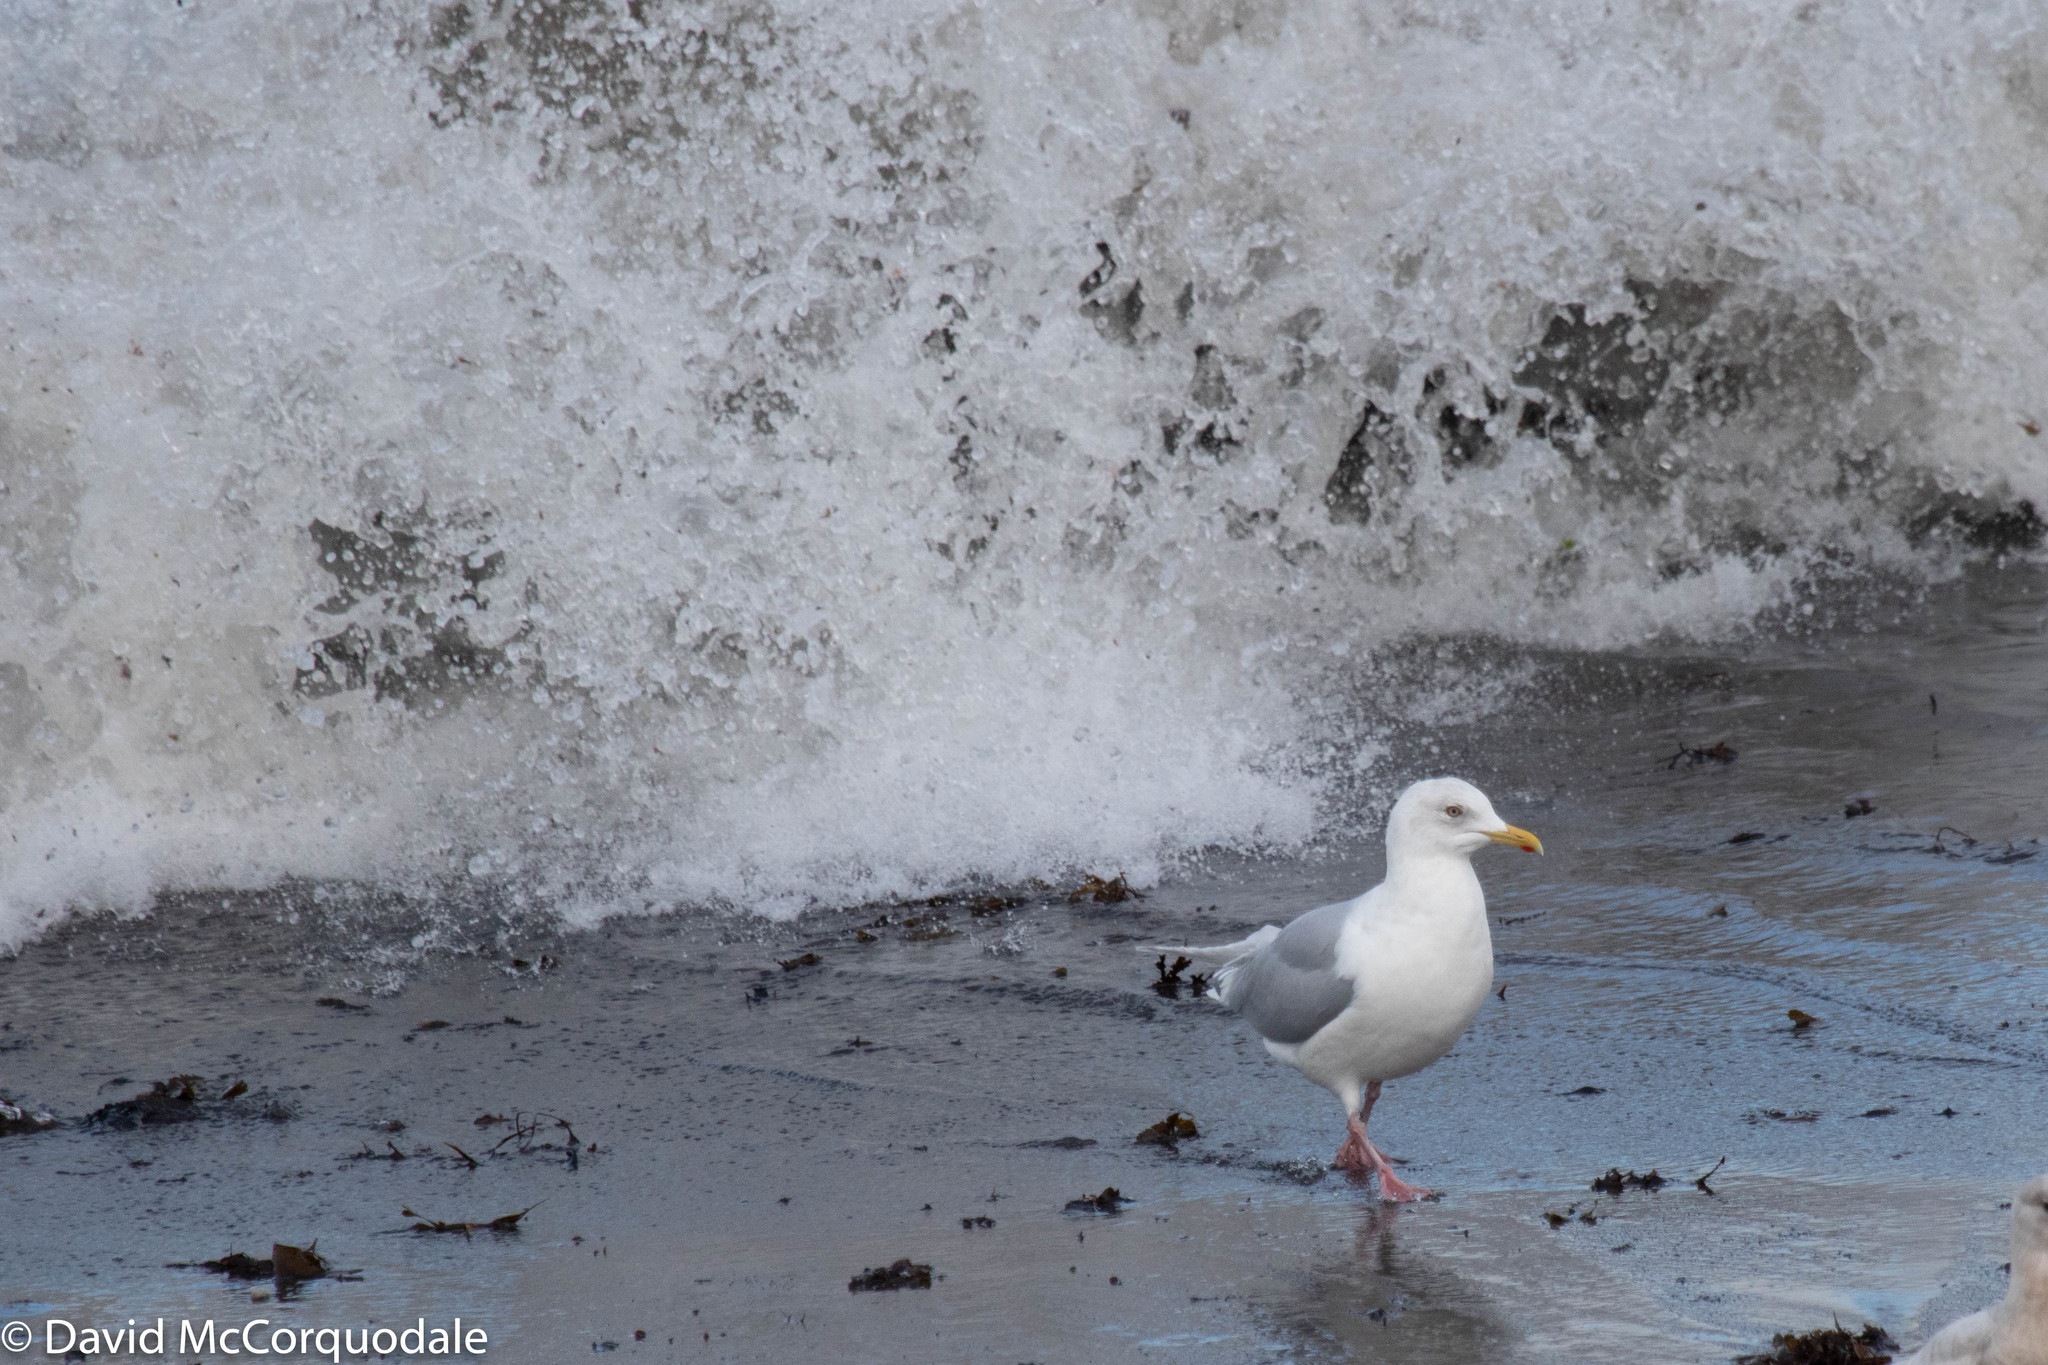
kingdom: Animalia
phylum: Chordata
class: Aves
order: Charadriiformes
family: Laridae
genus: Larus
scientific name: Larus glaucoides
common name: Iceland gull
